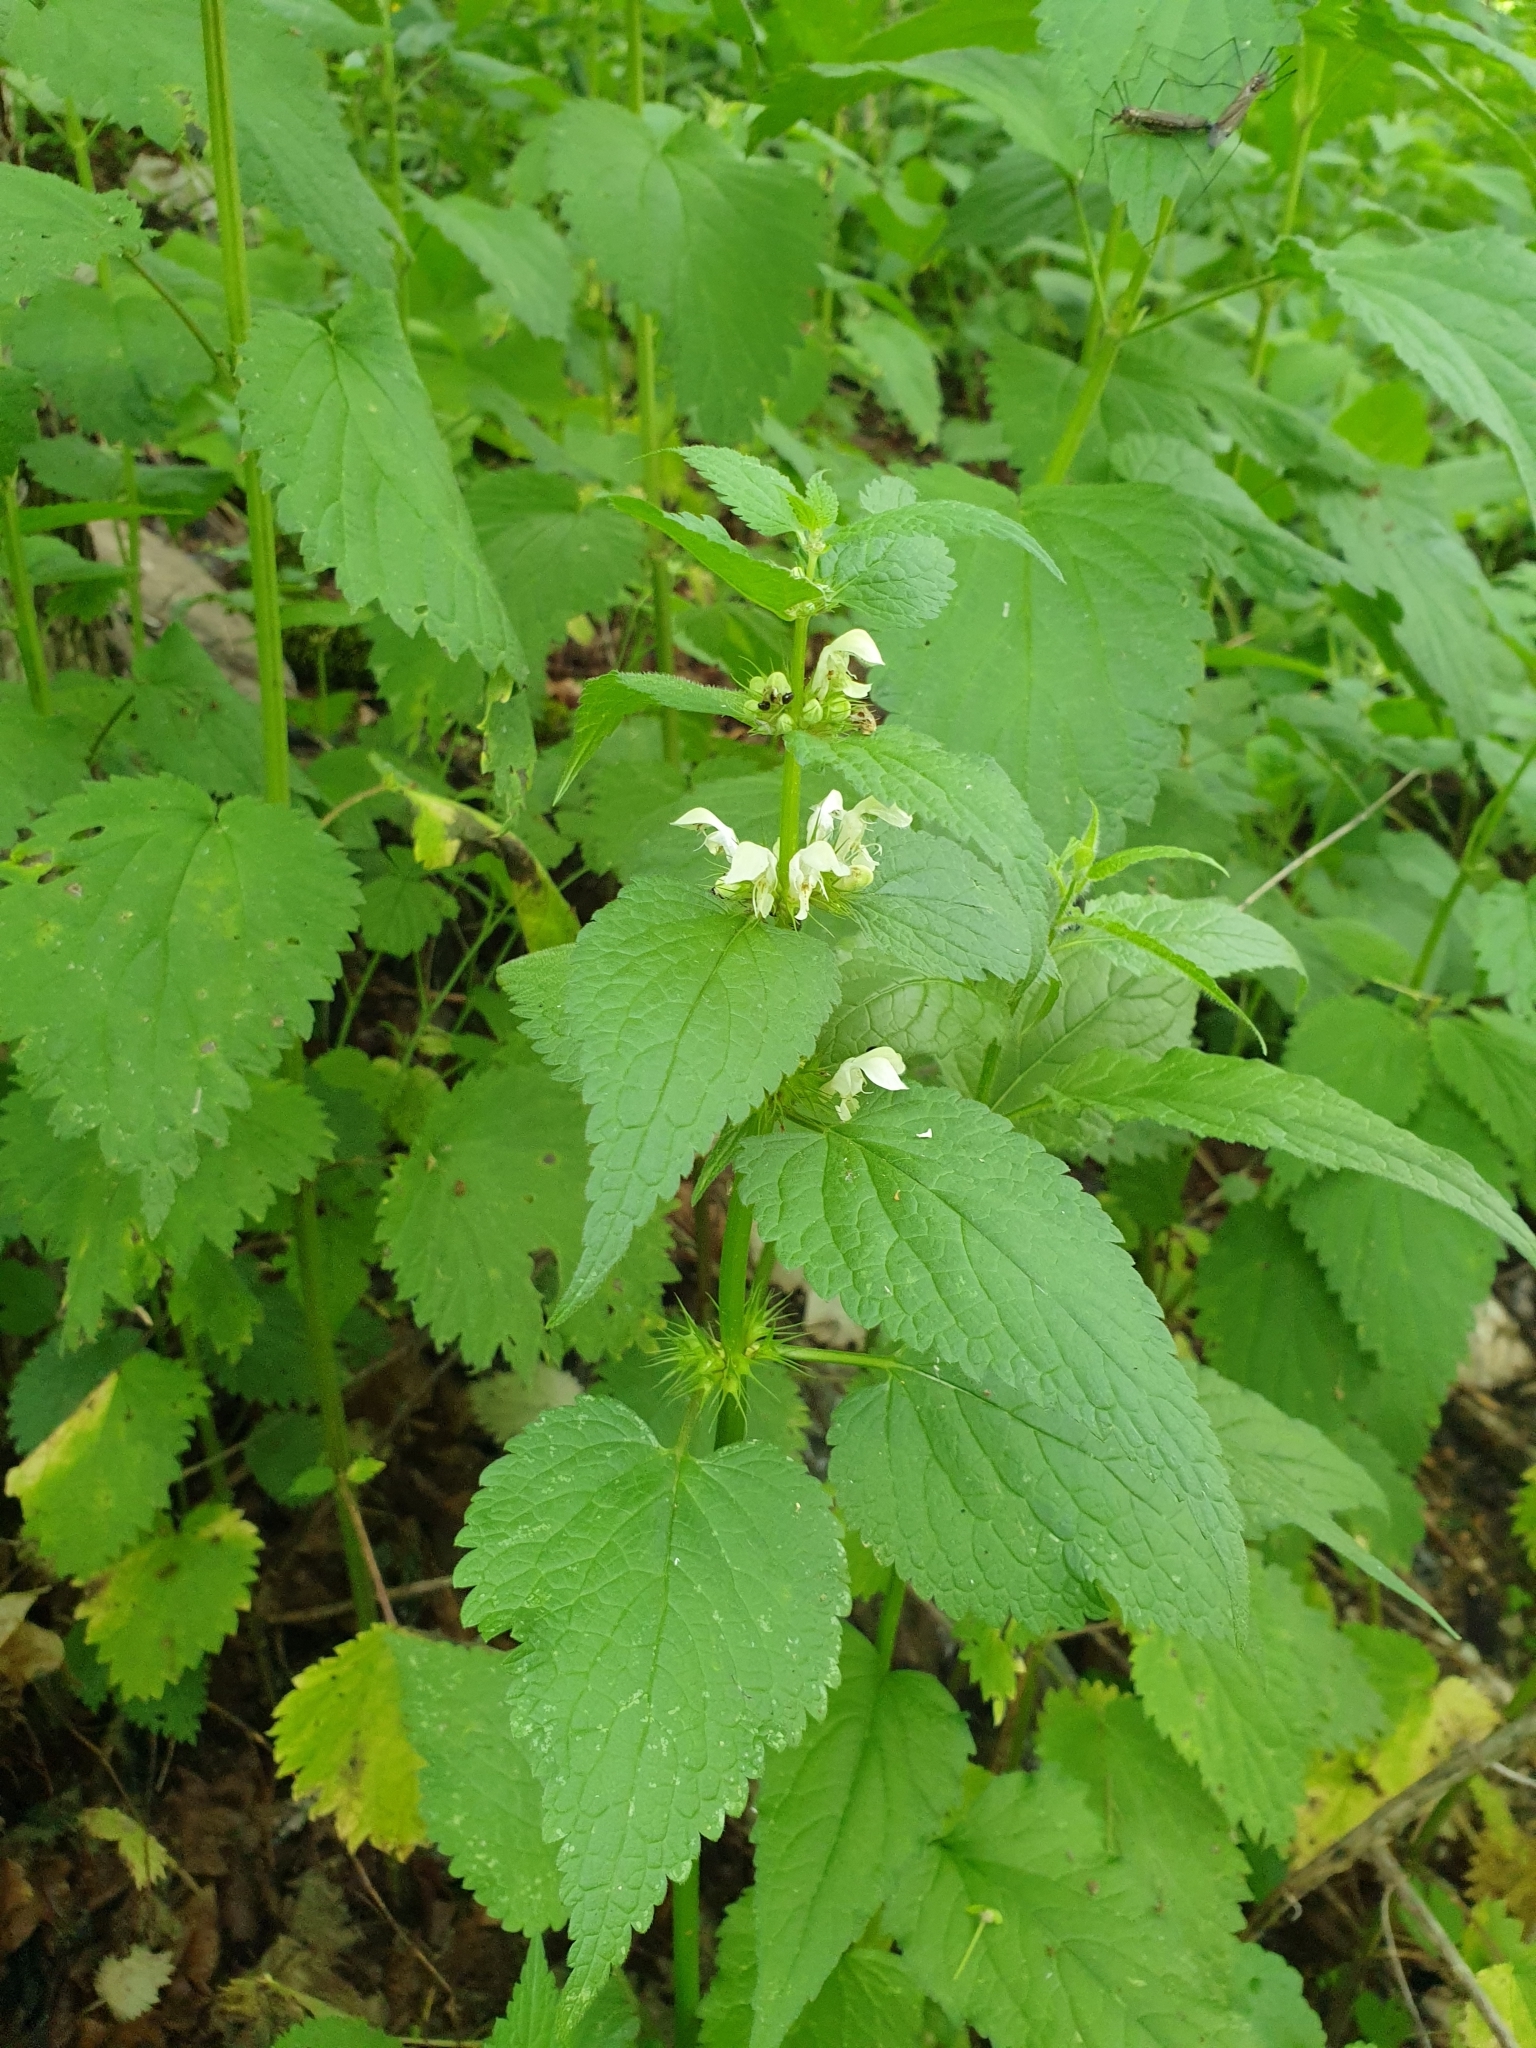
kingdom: Plantae
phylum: Tracheophyta
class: Magnoliopsida
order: Lamiales
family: Lamiaceae
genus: Lamium
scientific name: Lamium album
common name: White dead-nettle
